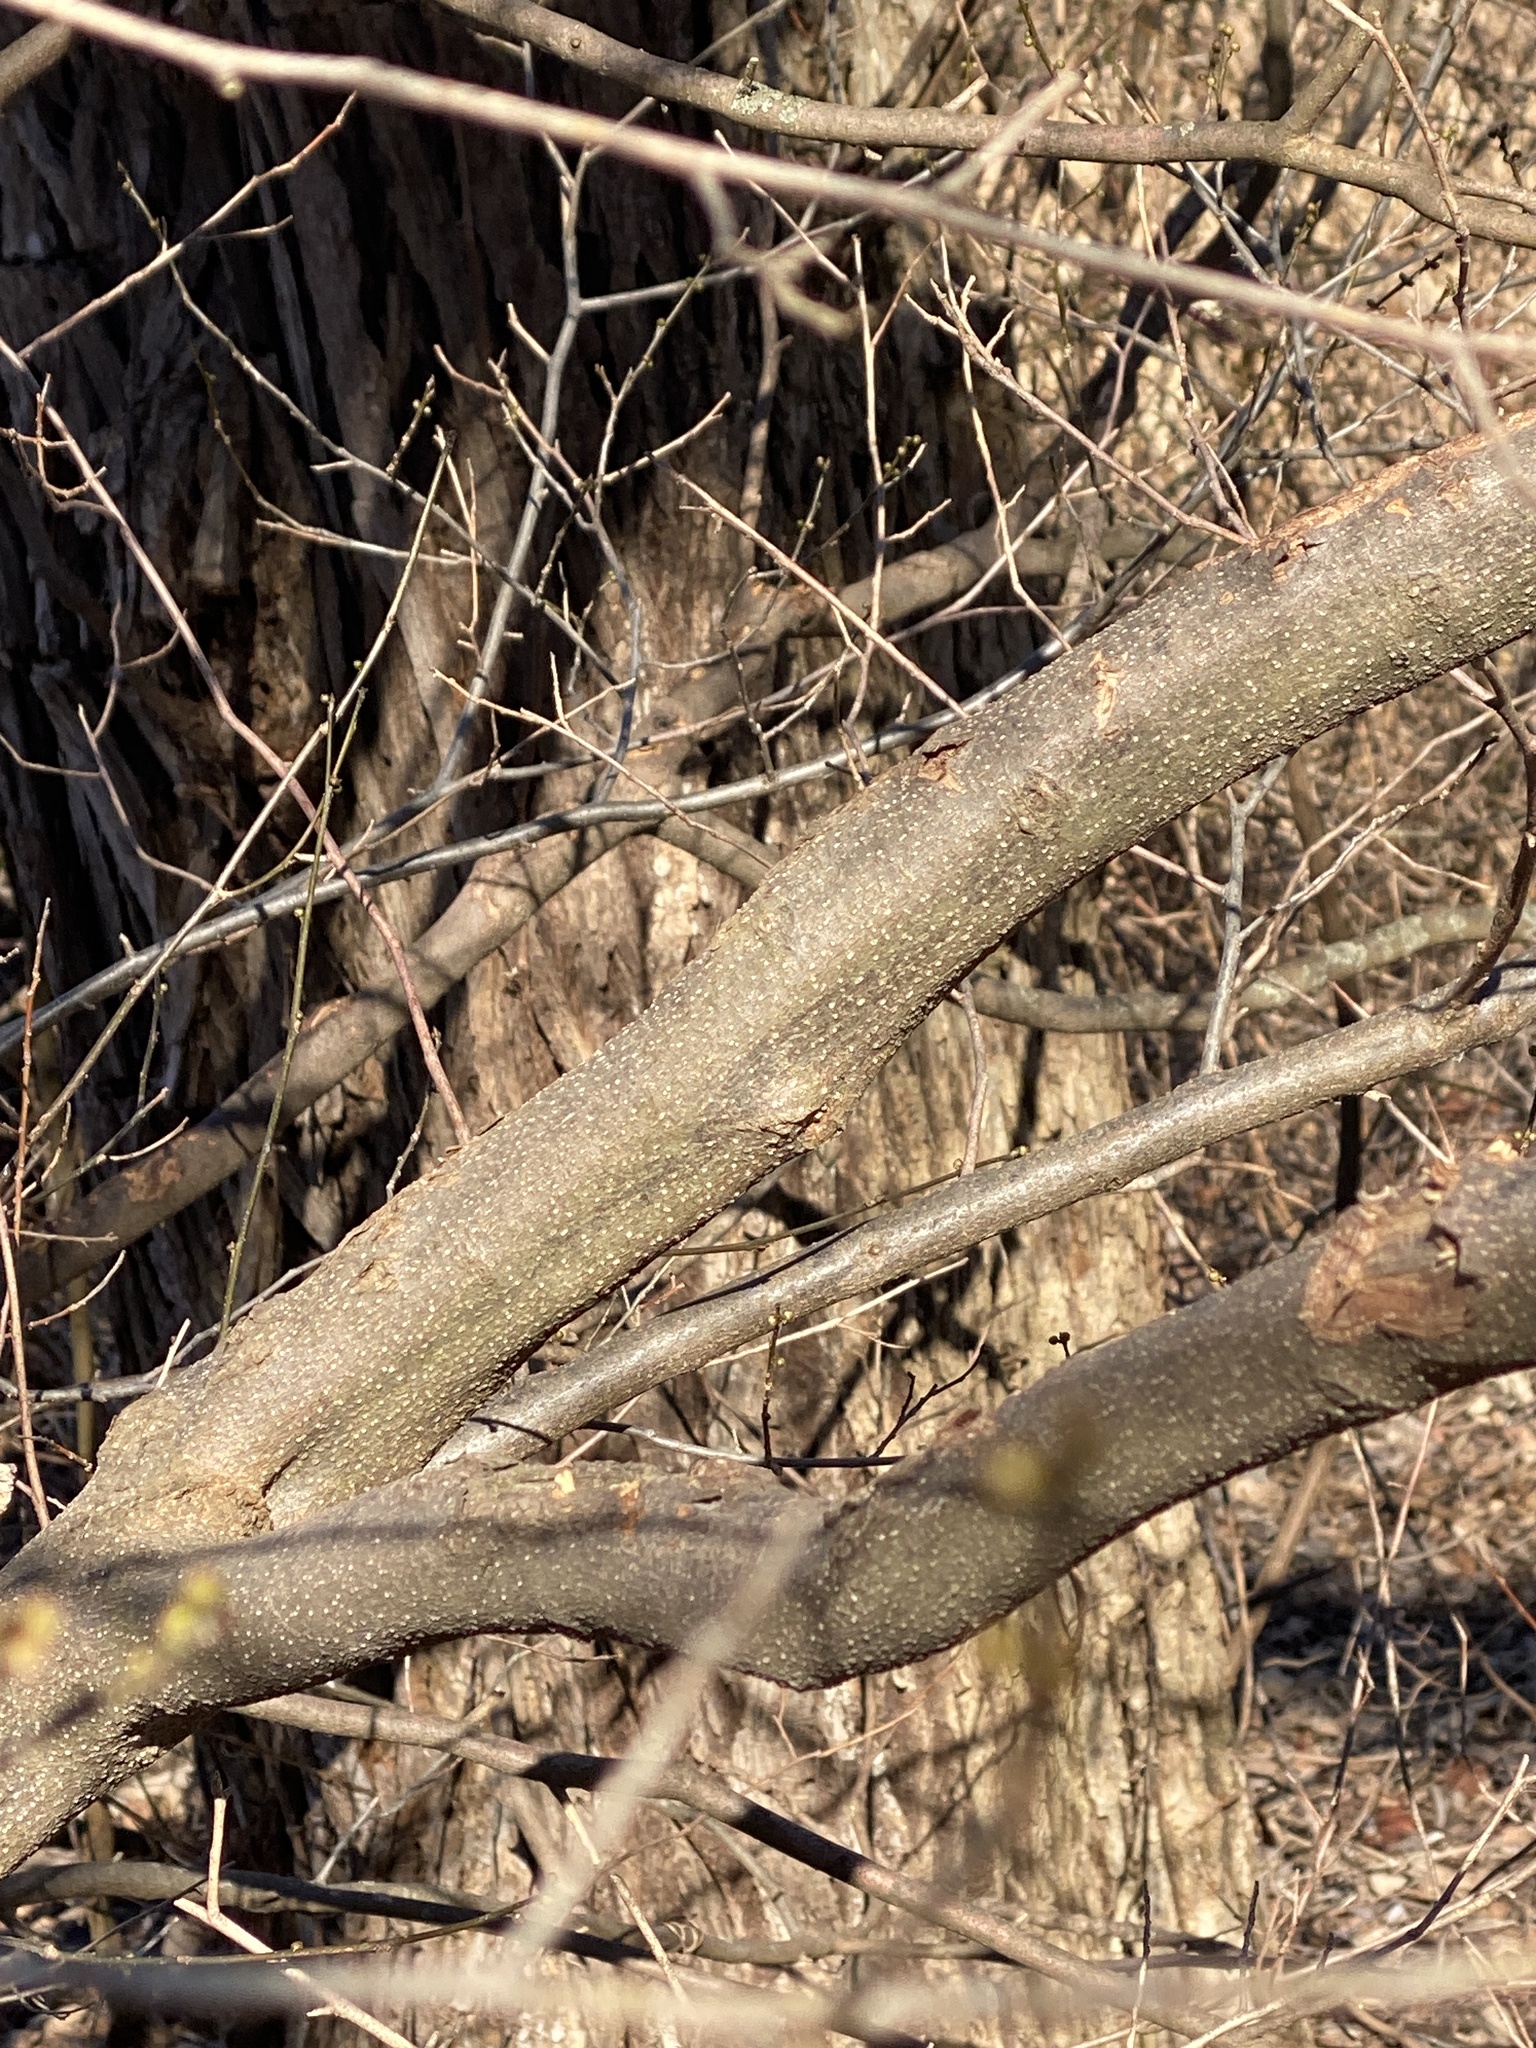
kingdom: Plantae
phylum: Tracheophyta
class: Magnoliopsida
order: Laurales
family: Lauraceae
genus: Lindera
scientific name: Lindera benzoin
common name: Spicebush
